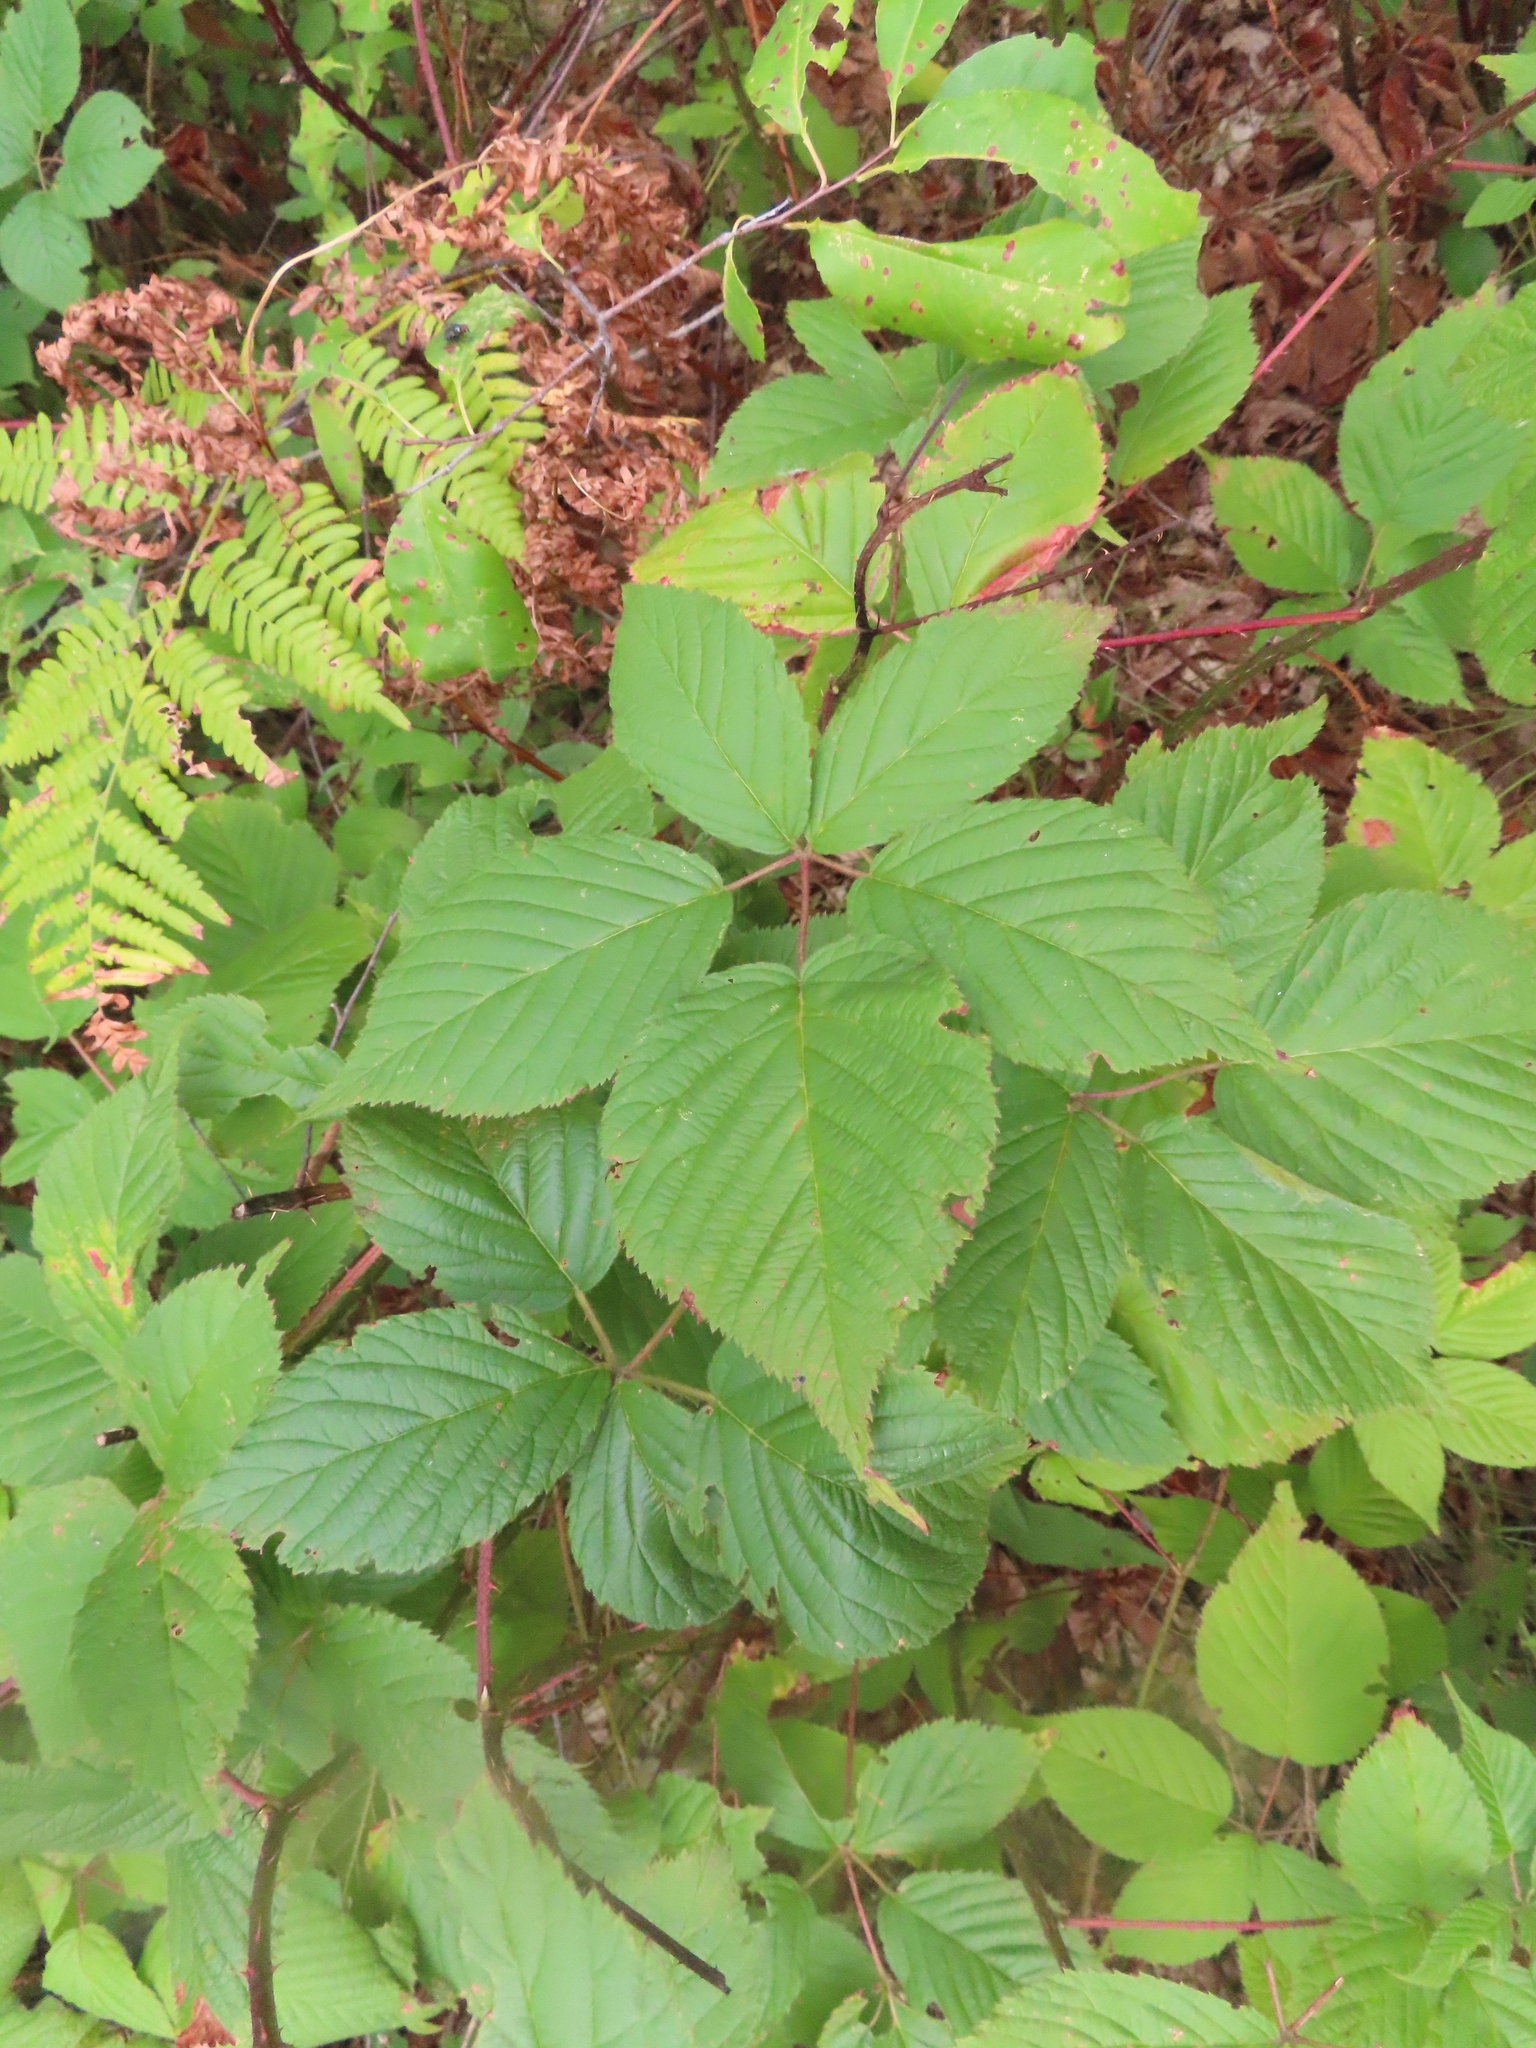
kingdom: Plantae
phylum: Tracheophyta
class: Magnoliopsida
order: Rosales
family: Rosaceae
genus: Rubus
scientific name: Rubus allegheniensis
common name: Allegheny blackberry
